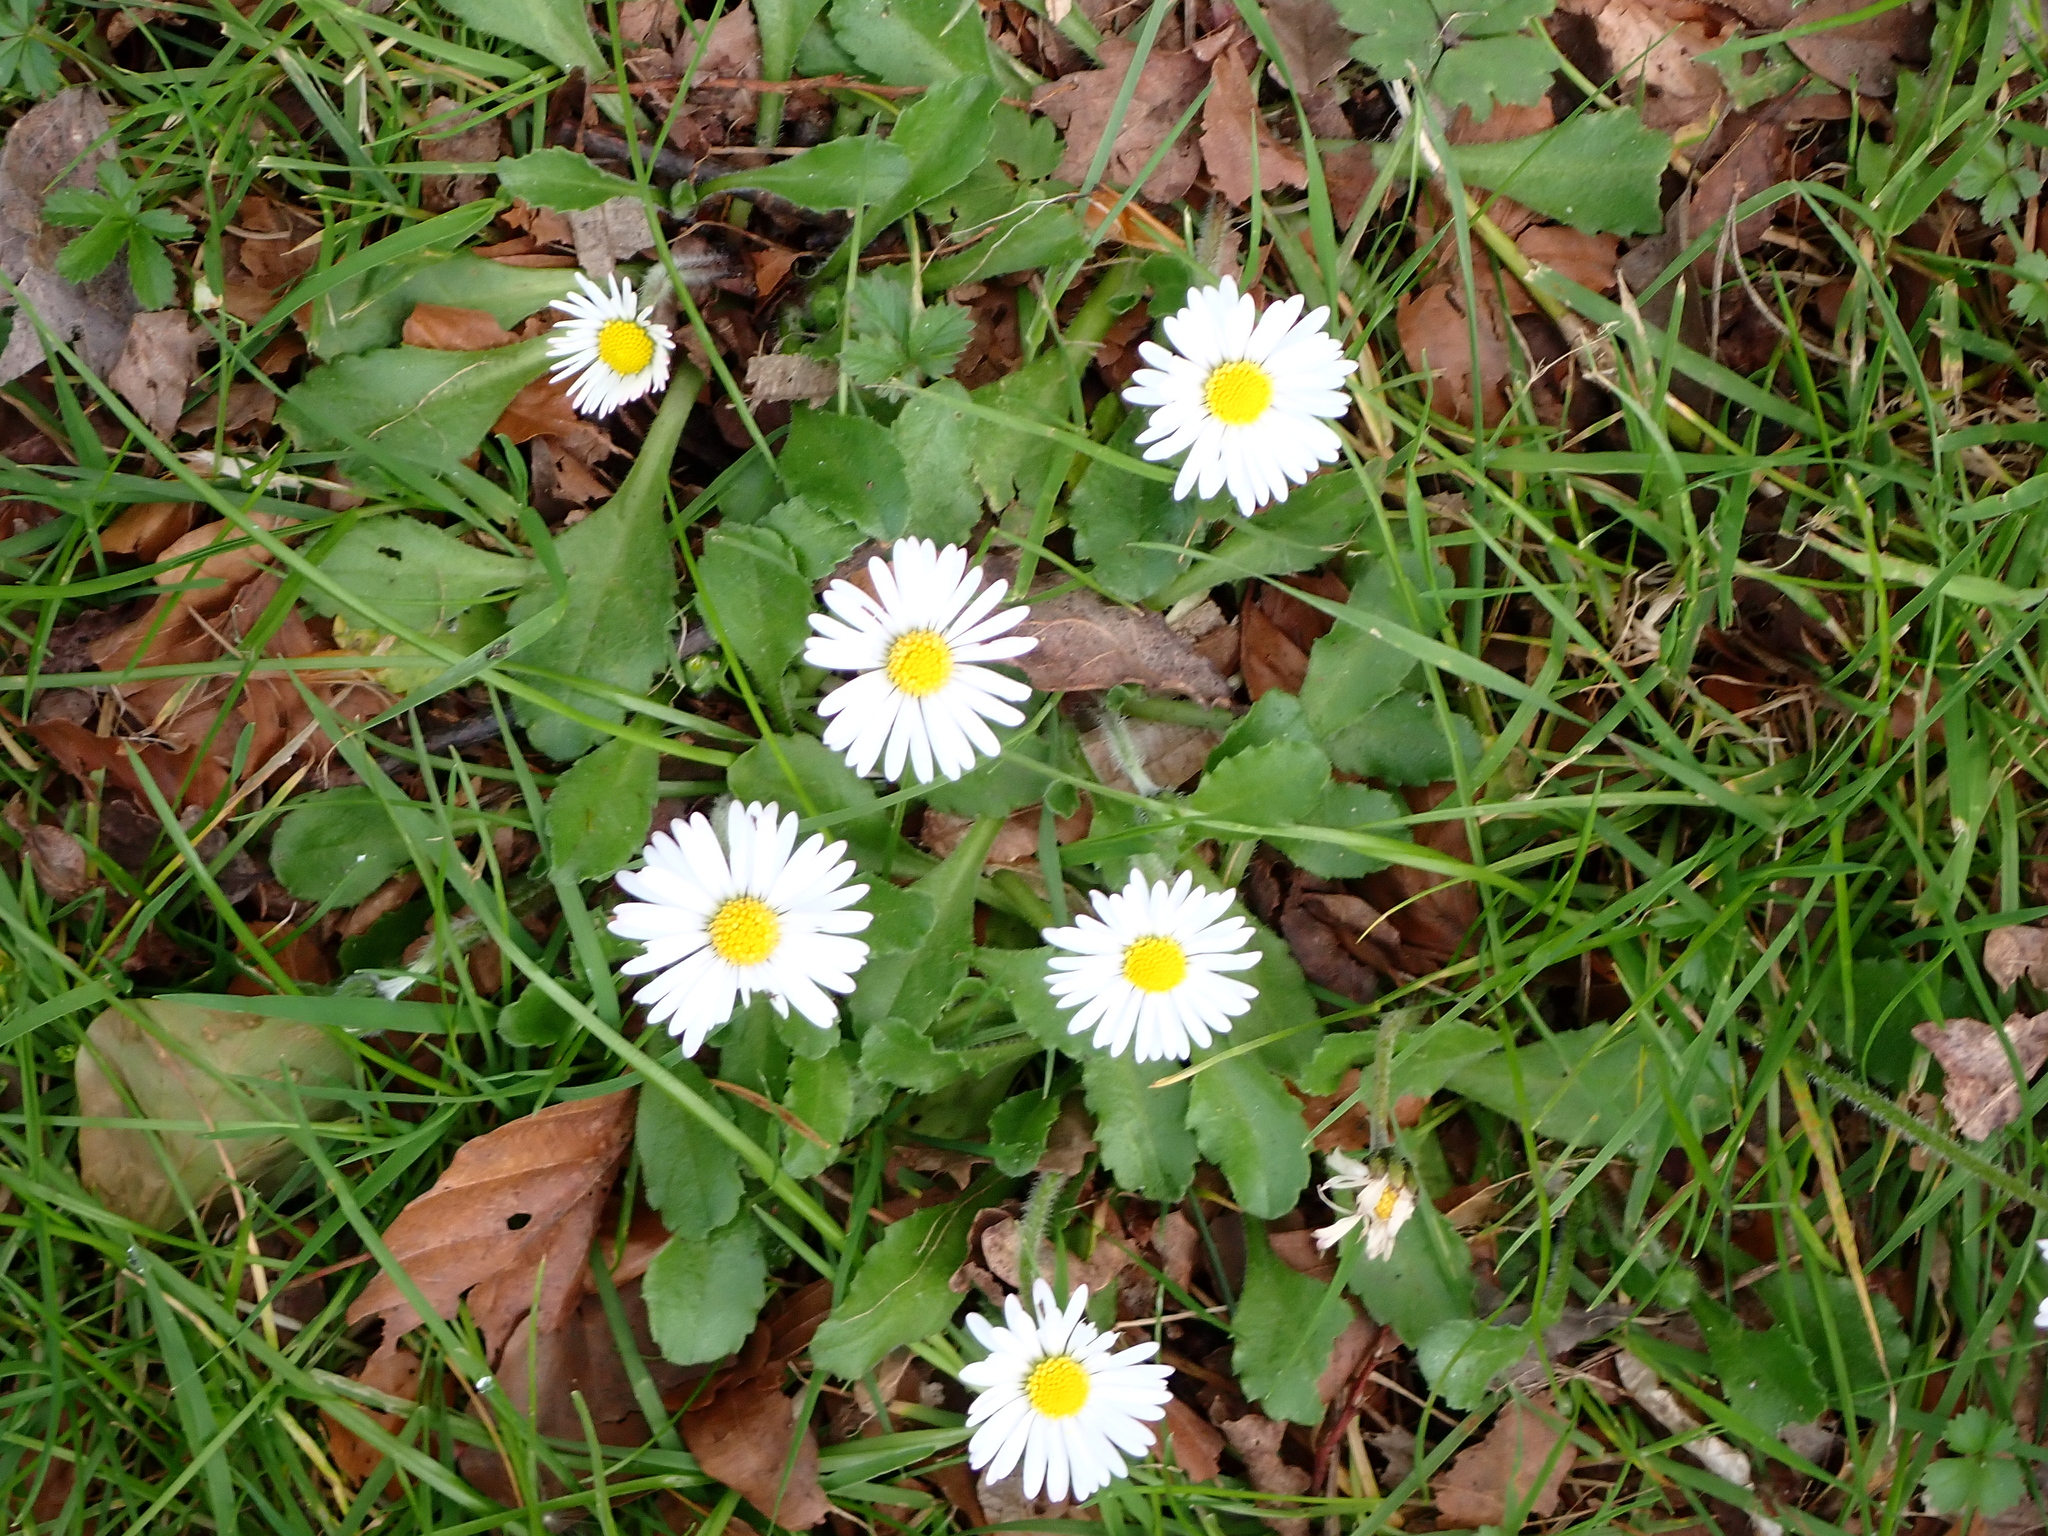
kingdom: Plantae
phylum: Tracheophyta
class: Magnoliopsida
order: Asterales
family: Asteraceae
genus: Bellis
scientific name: Bellis perennis
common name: Lawndaisy
